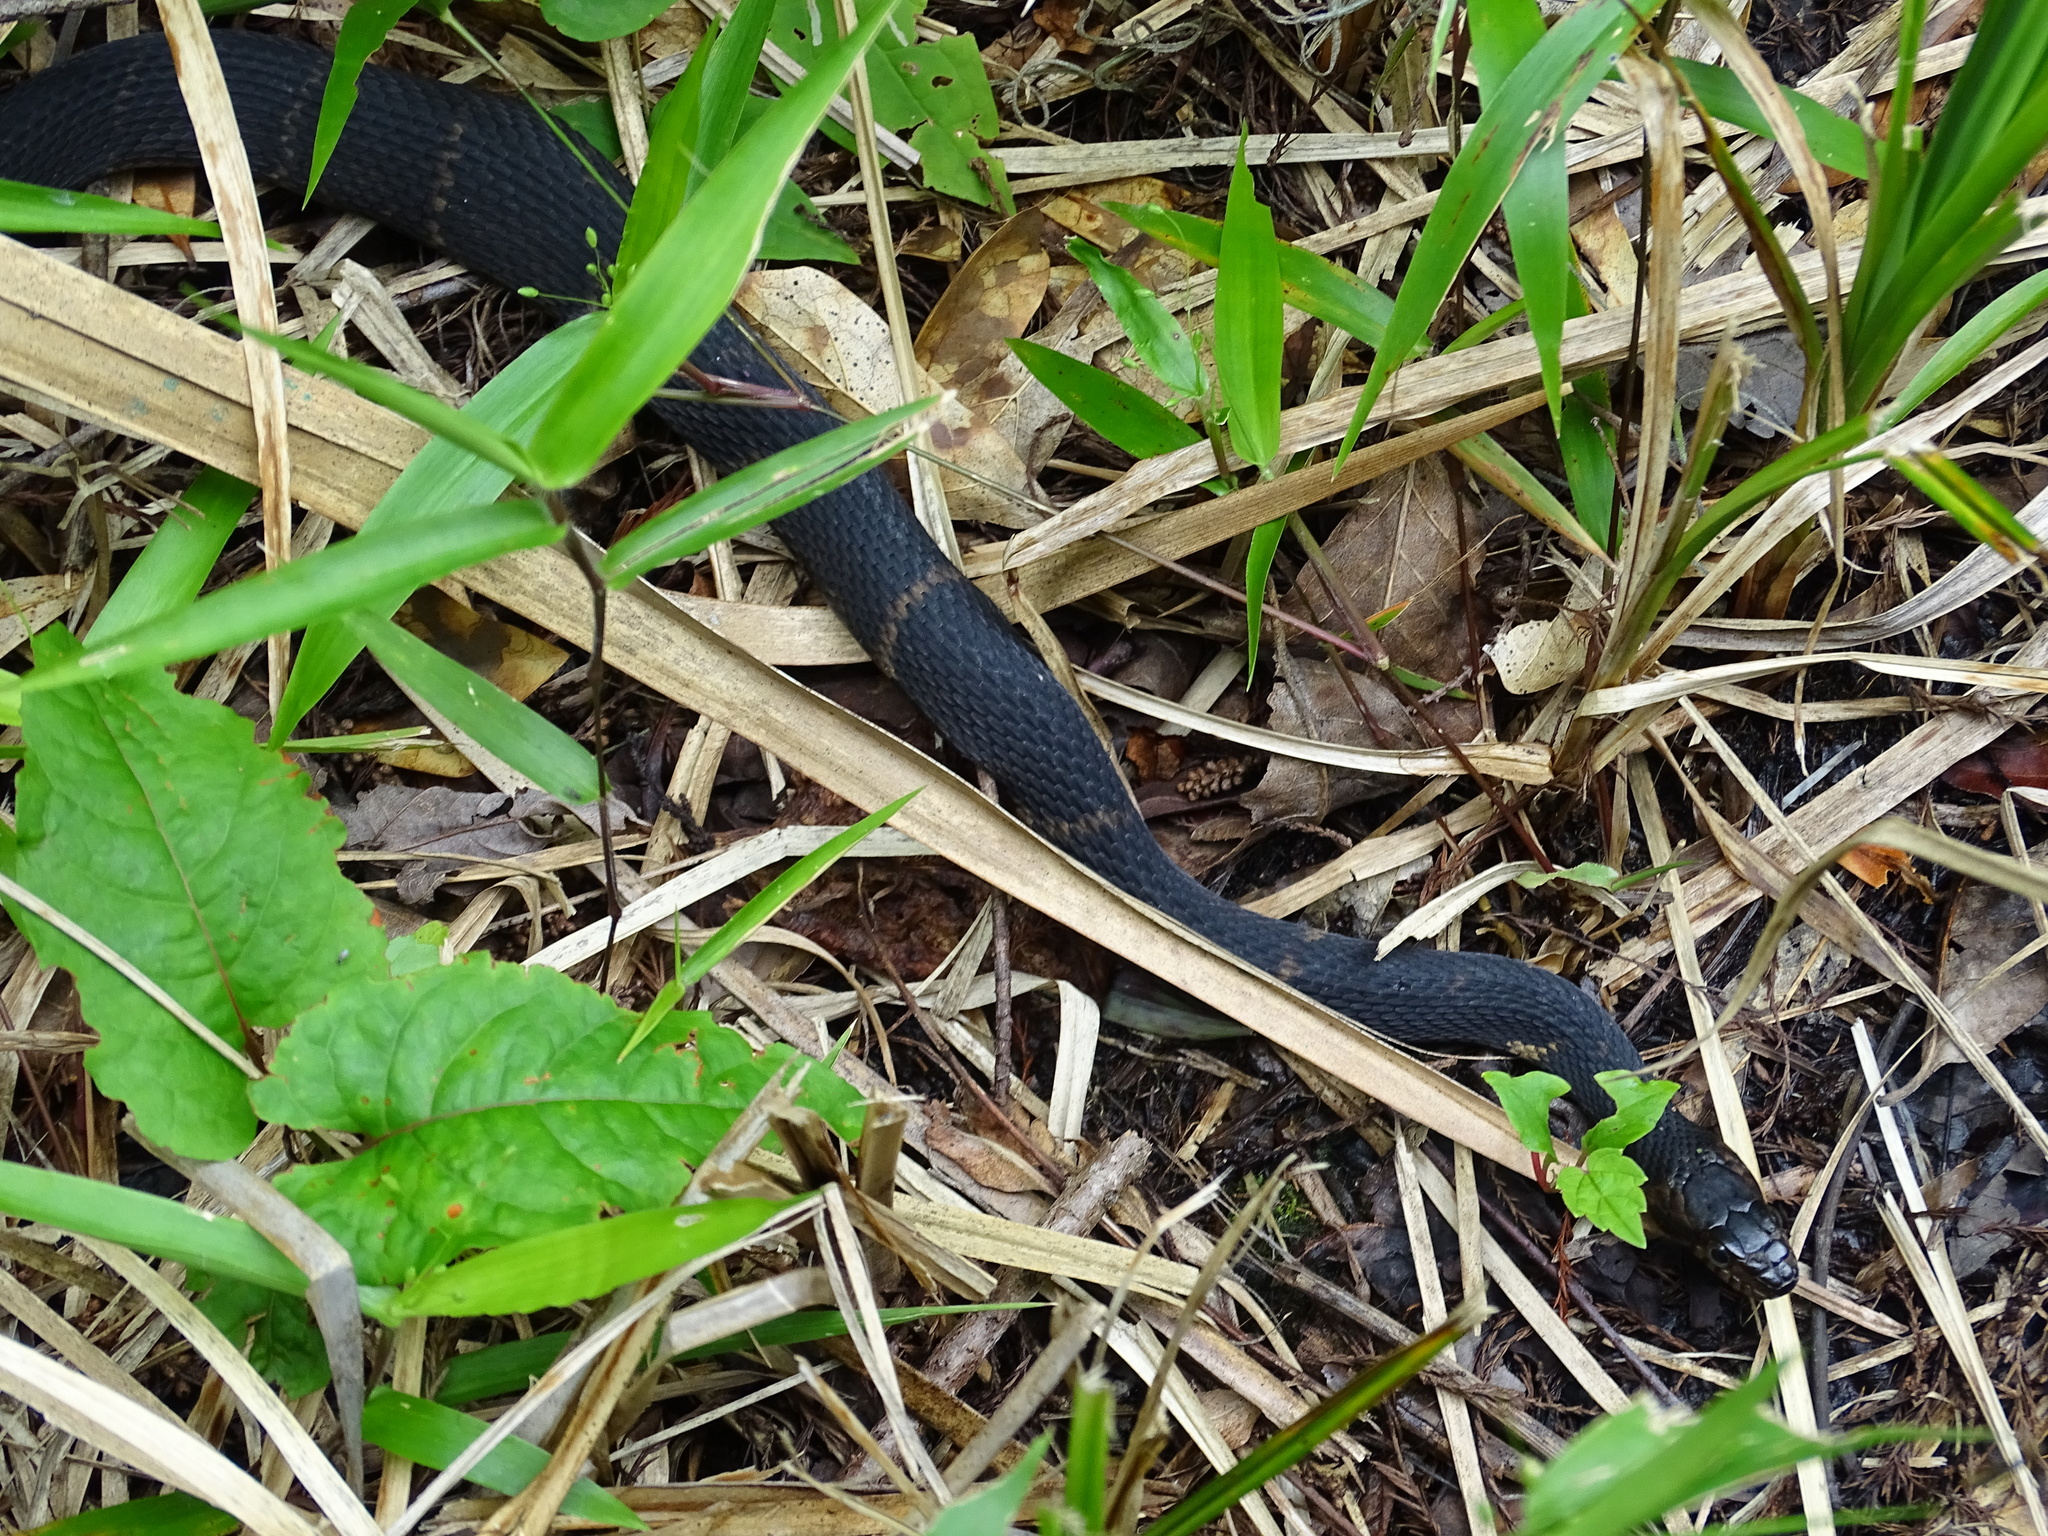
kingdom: Animalia
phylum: Chordata
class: Squamata
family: Colubridae
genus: Nerodia
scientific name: Nerodia fasciata
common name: Southern water snake
